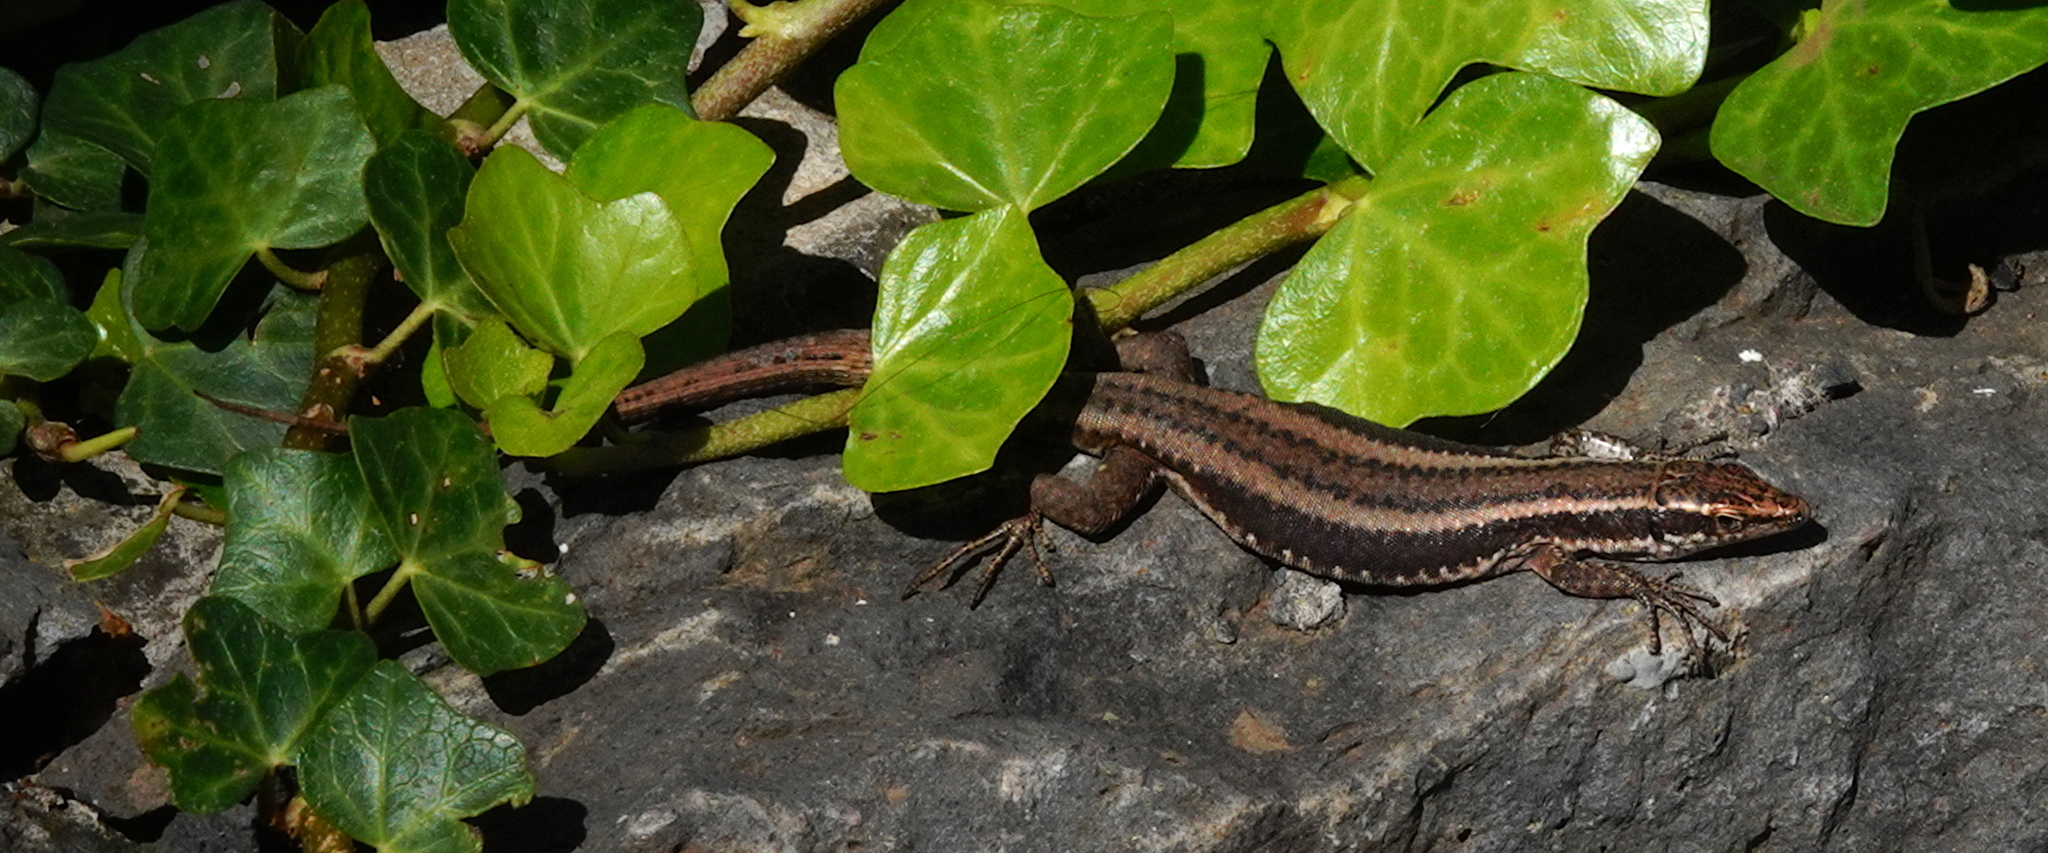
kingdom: Animalia
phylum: Chordata
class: Squamata
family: Lacertidae
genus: Teira
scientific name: Teira dugesii
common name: Madeira lizard
